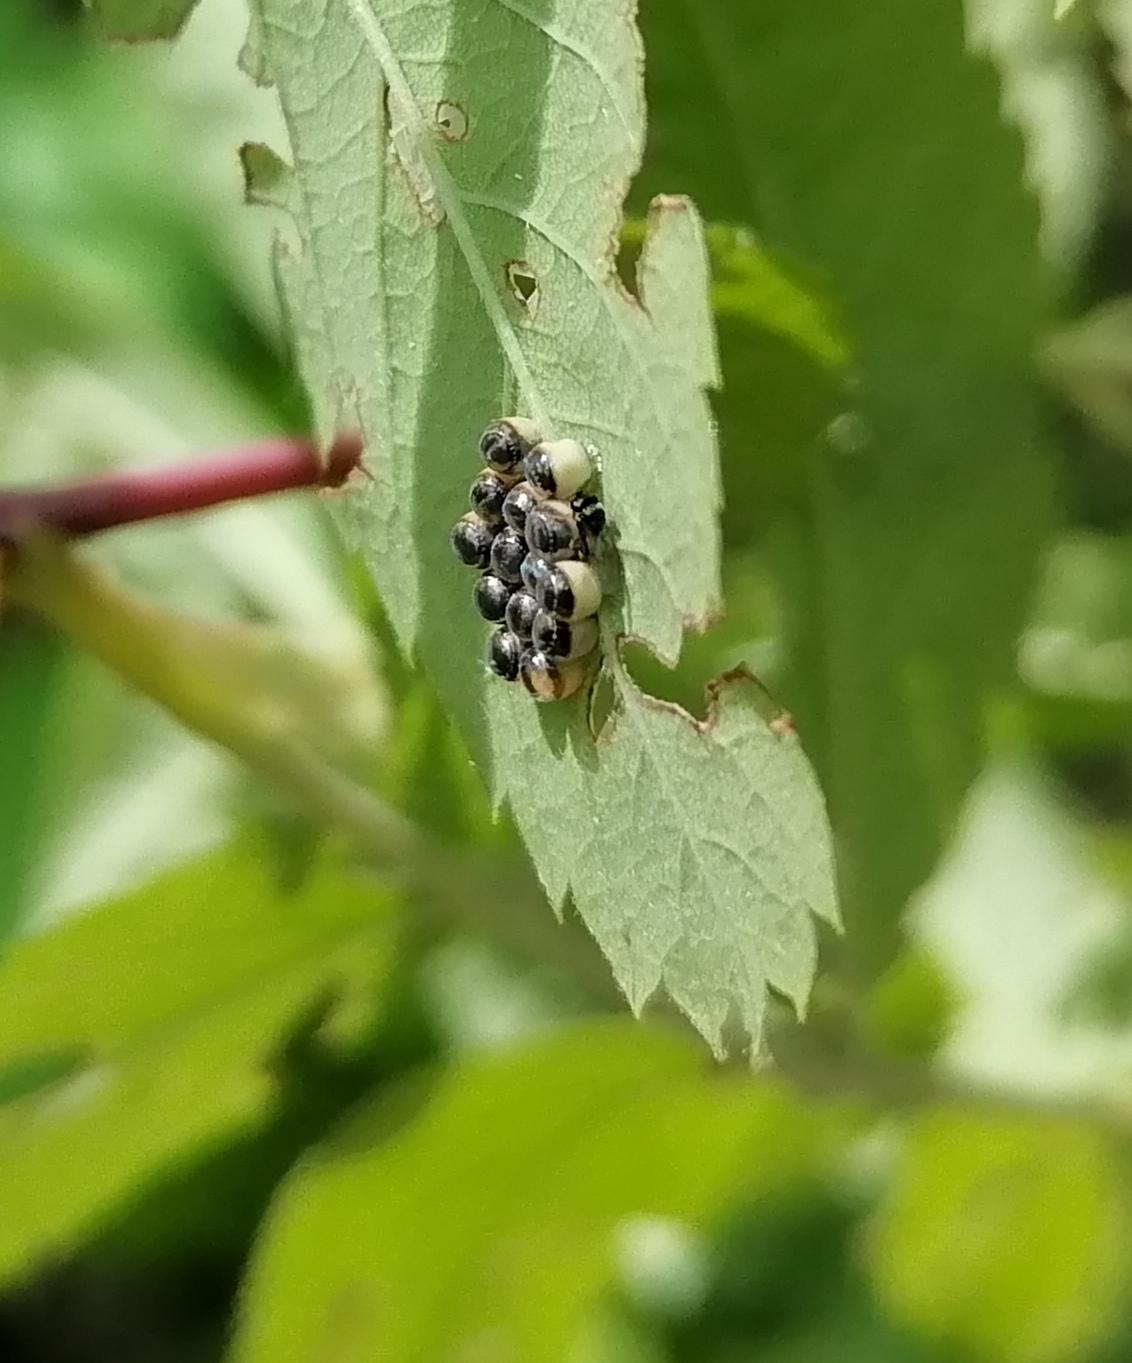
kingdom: Animalia
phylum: Arthropoda
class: Insecta
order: Hemiptera
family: Pentatomidae
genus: Palomena
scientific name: Palomena prasina
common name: Green shieldbug
